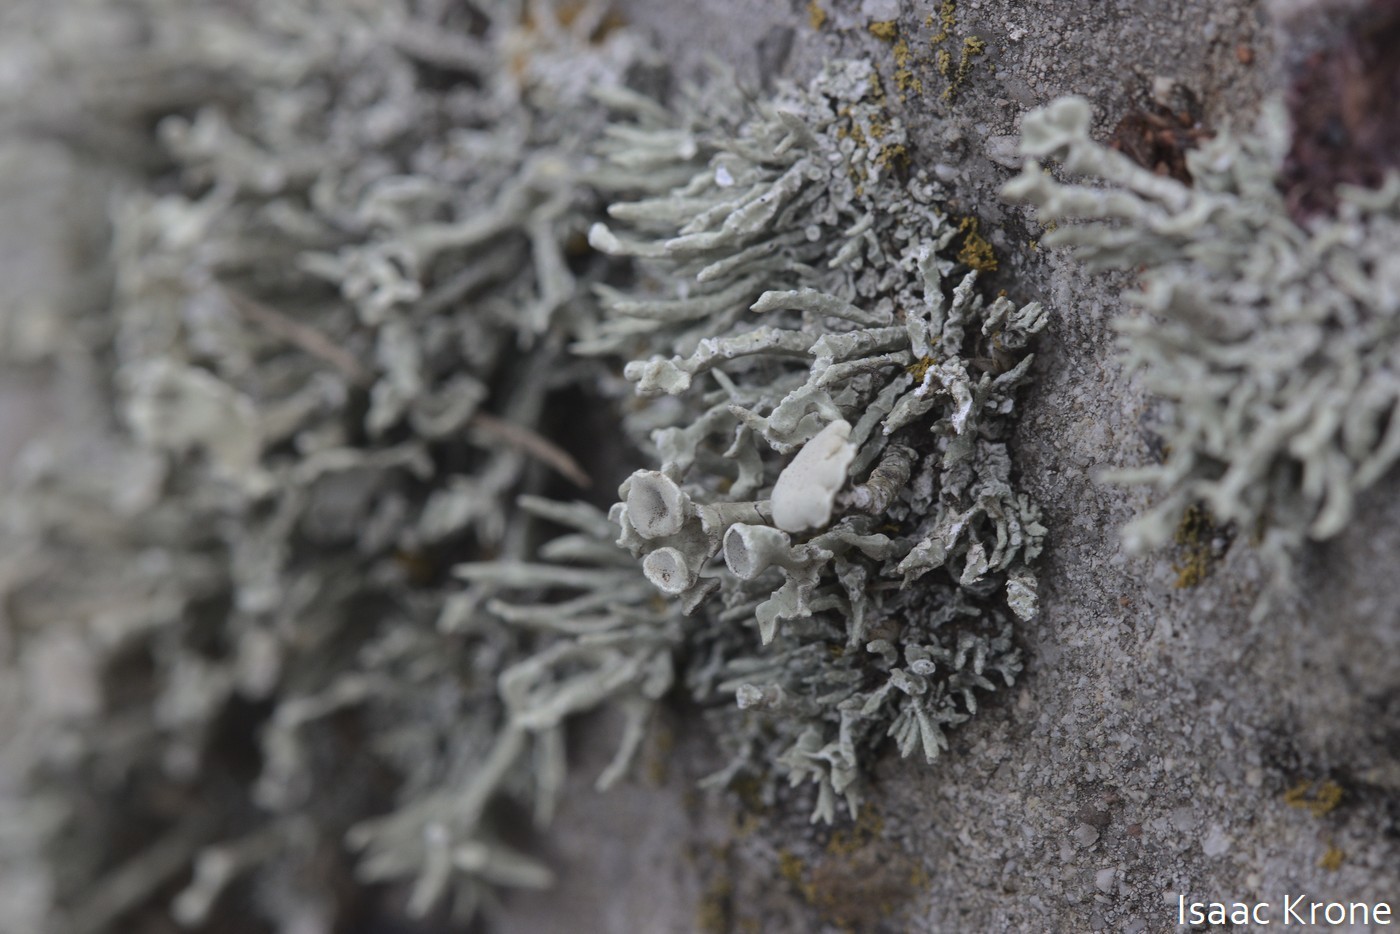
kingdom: Fungi
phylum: Ascomycota
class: Lecanoromycetes
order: Lecanorales
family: Ramalinaceae
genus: Niebla
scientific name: Niebla combeoides
